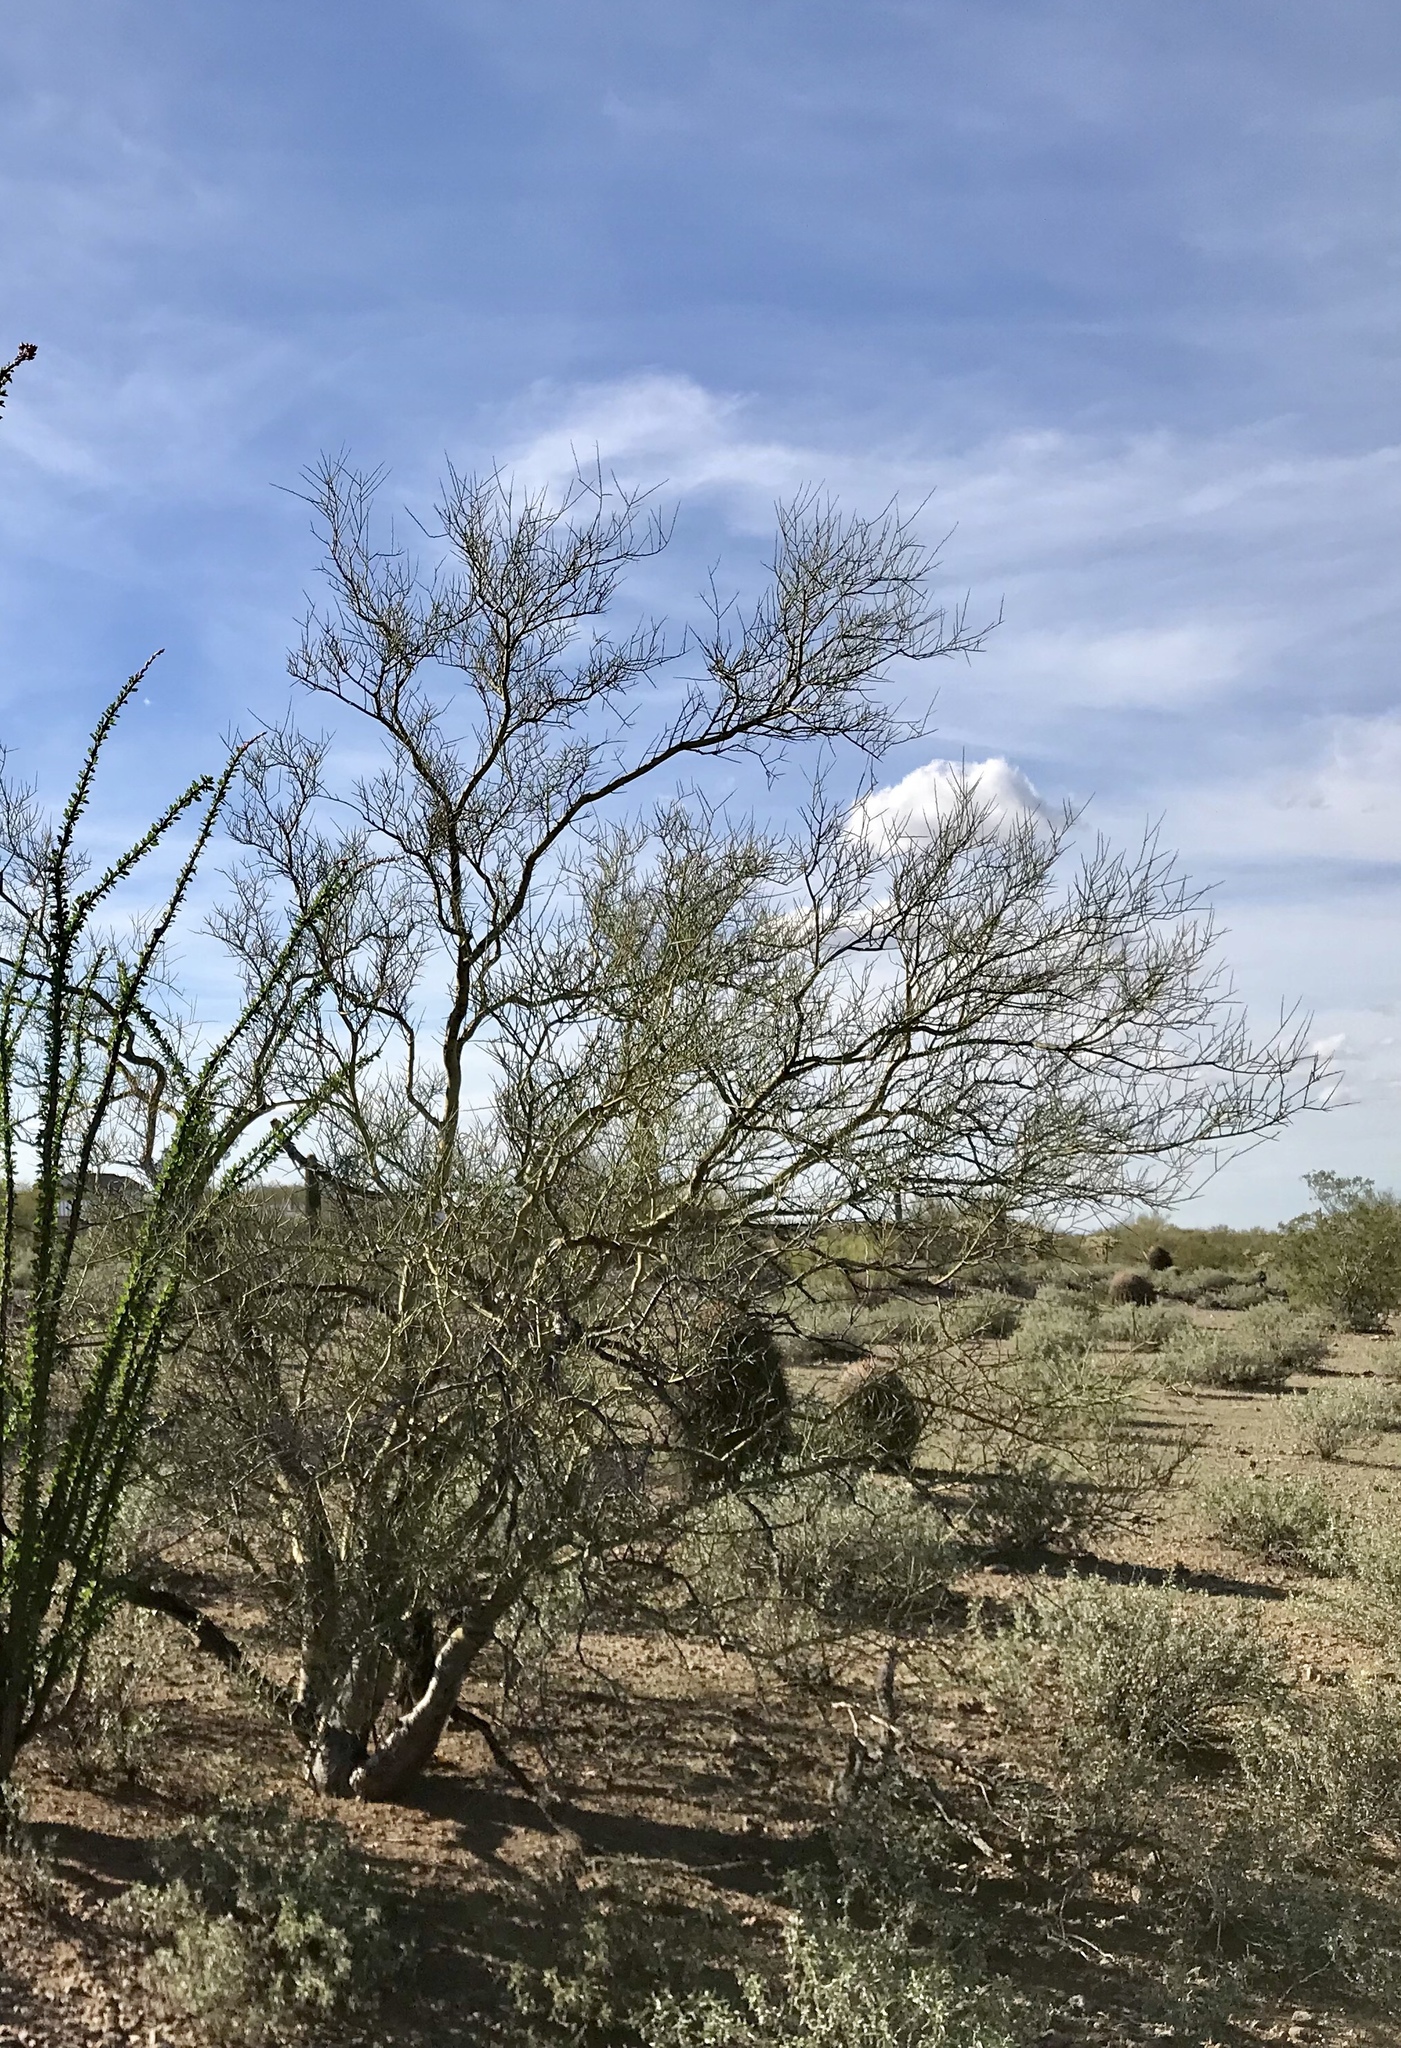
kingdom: Plantae
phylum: Tracheophyta
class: Magnoliopsida
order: Fabales
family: Fabaceae
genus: Parkinsonia
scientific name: Parkinsonia microphylla
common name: Yellow paloverde
